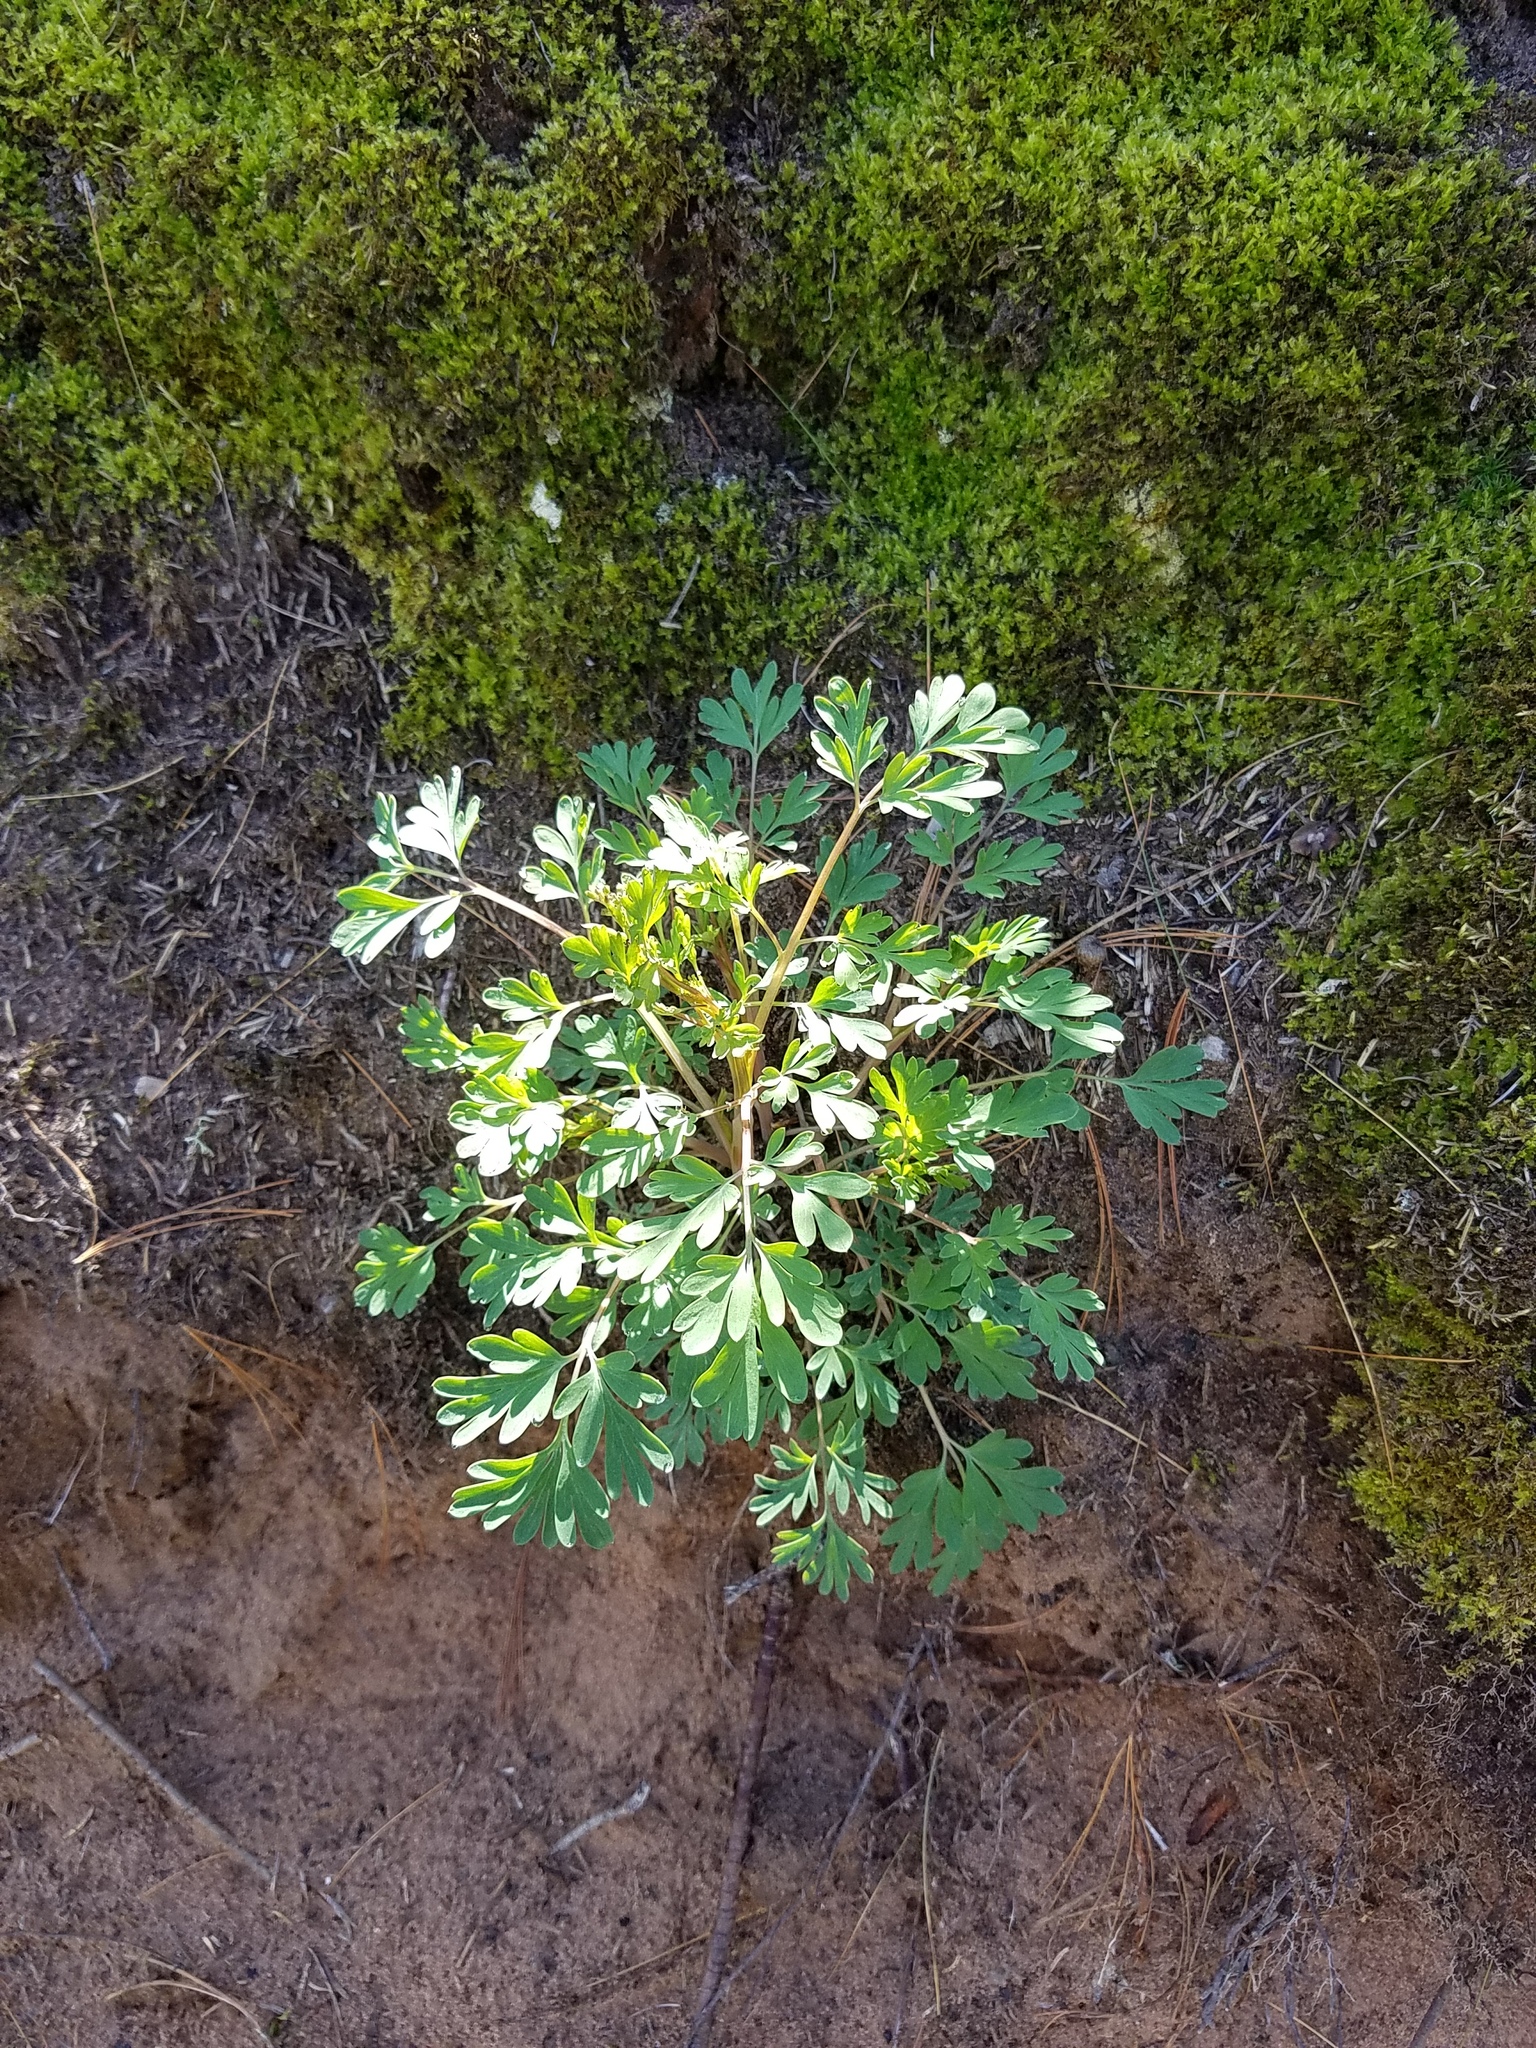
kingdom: Plantae
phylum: Tracheophyta
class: Magnoliopsida
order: Ranunculales
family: Papaveraceae
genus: Capnoides
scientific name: Capnoides sempervirens
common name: Rock harlequin
